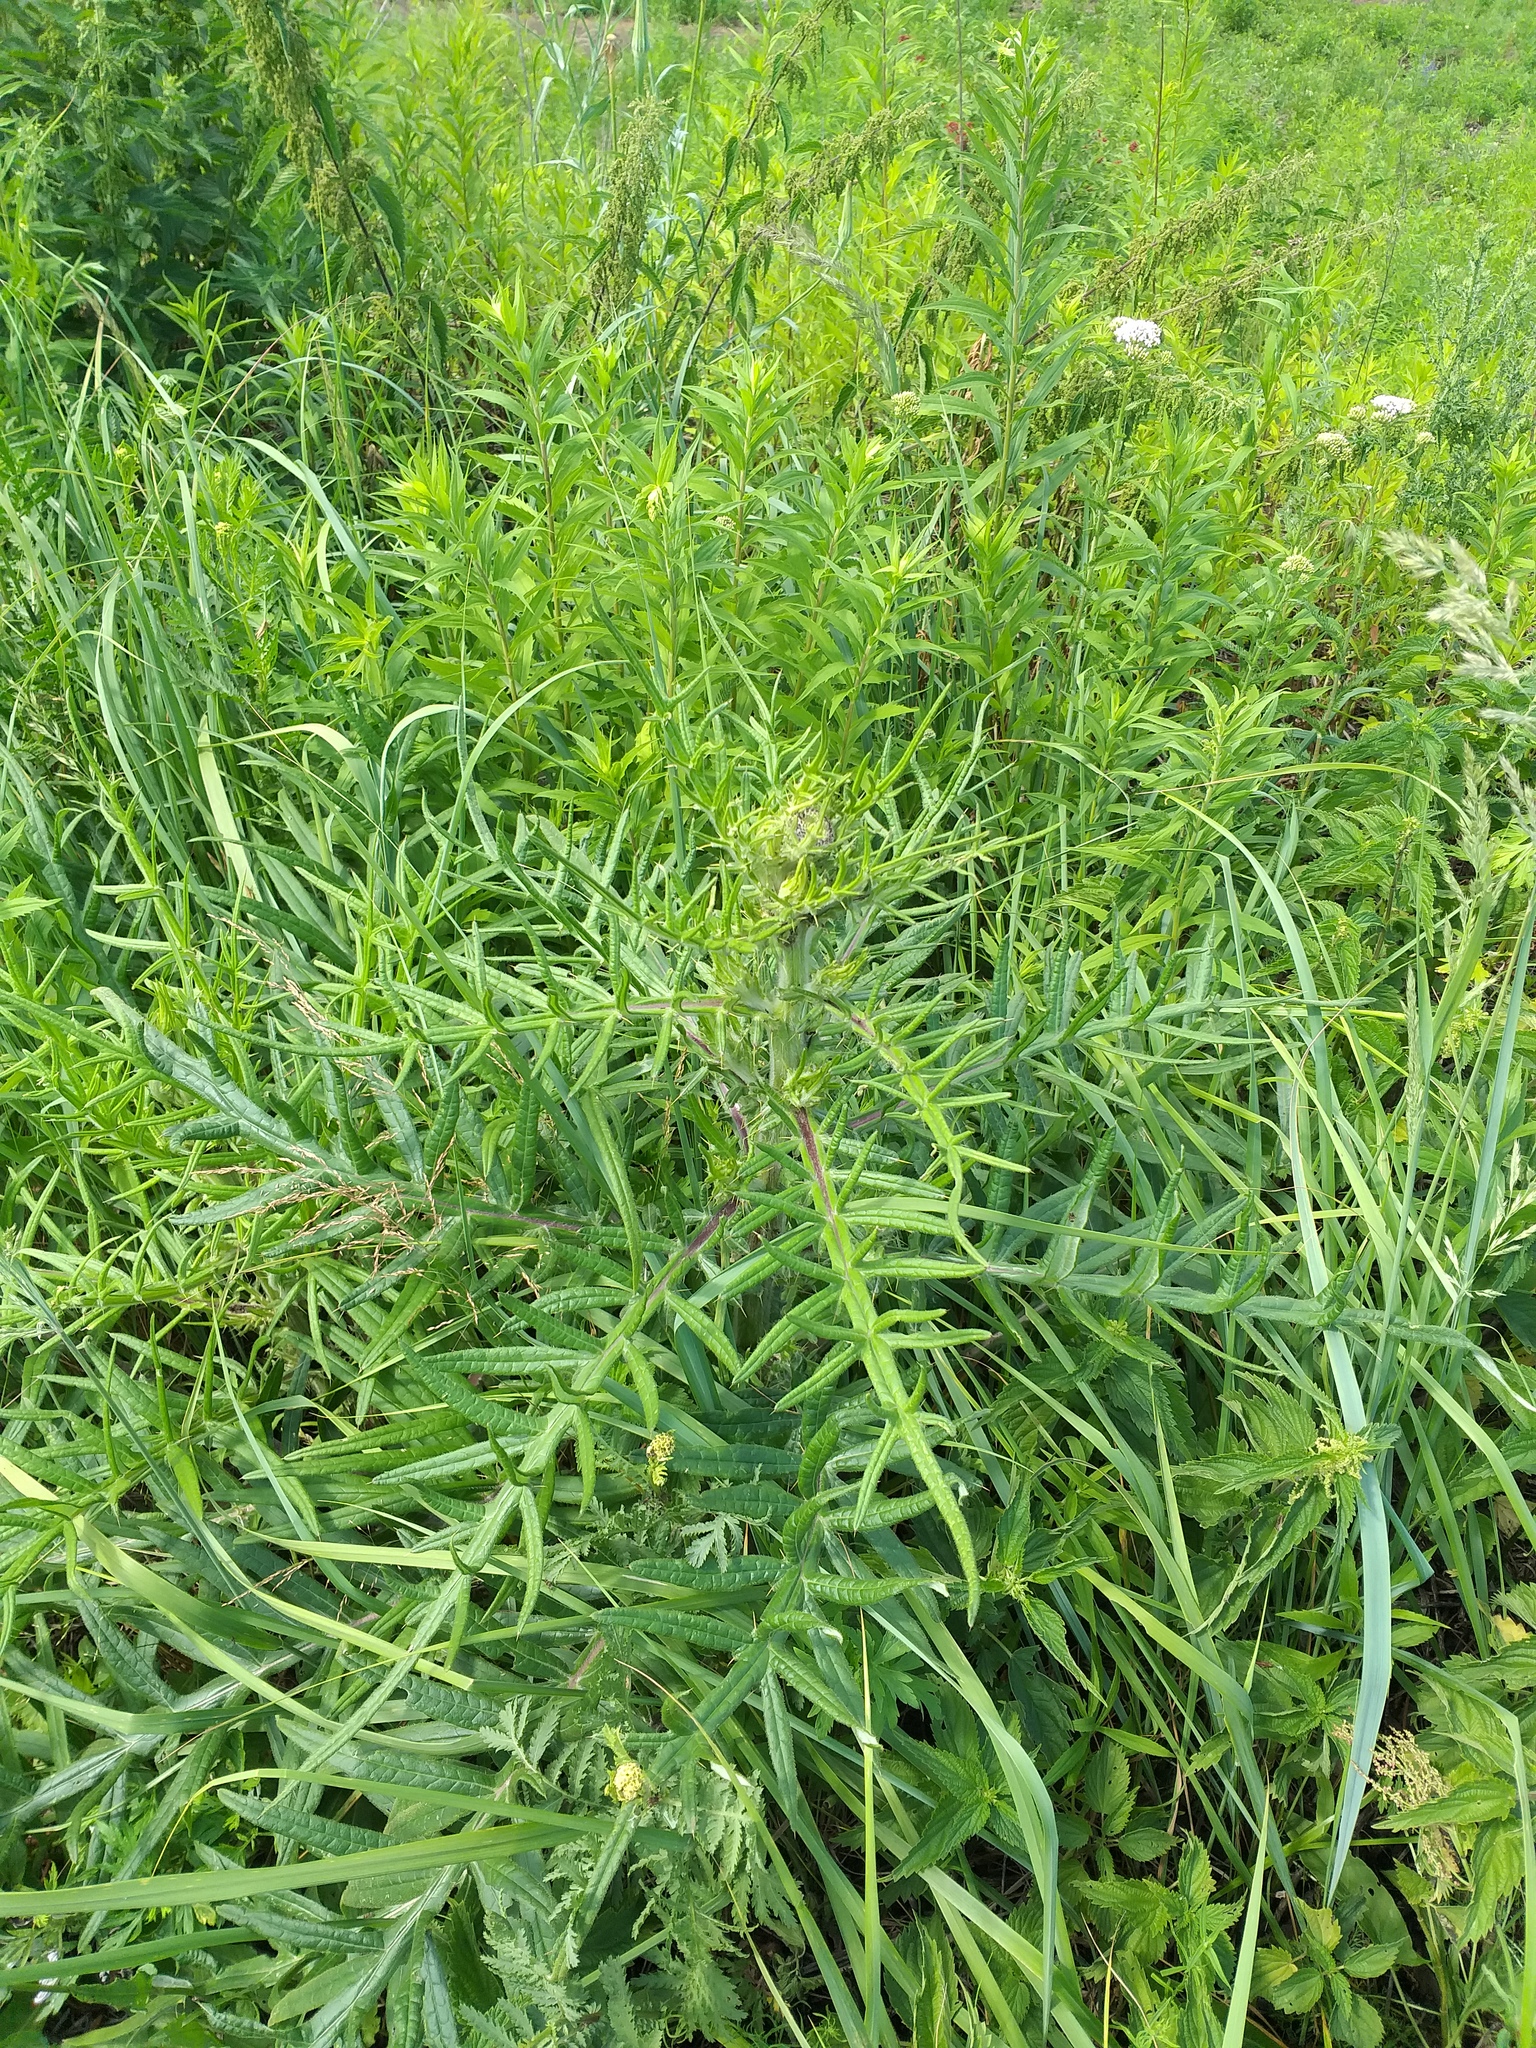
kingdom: Plantae
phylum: Tracheophyta
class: Magnoliopsida
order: Asterales
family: Asteraceae
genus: Lophiolepis
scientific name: Lophiolepis decussata
